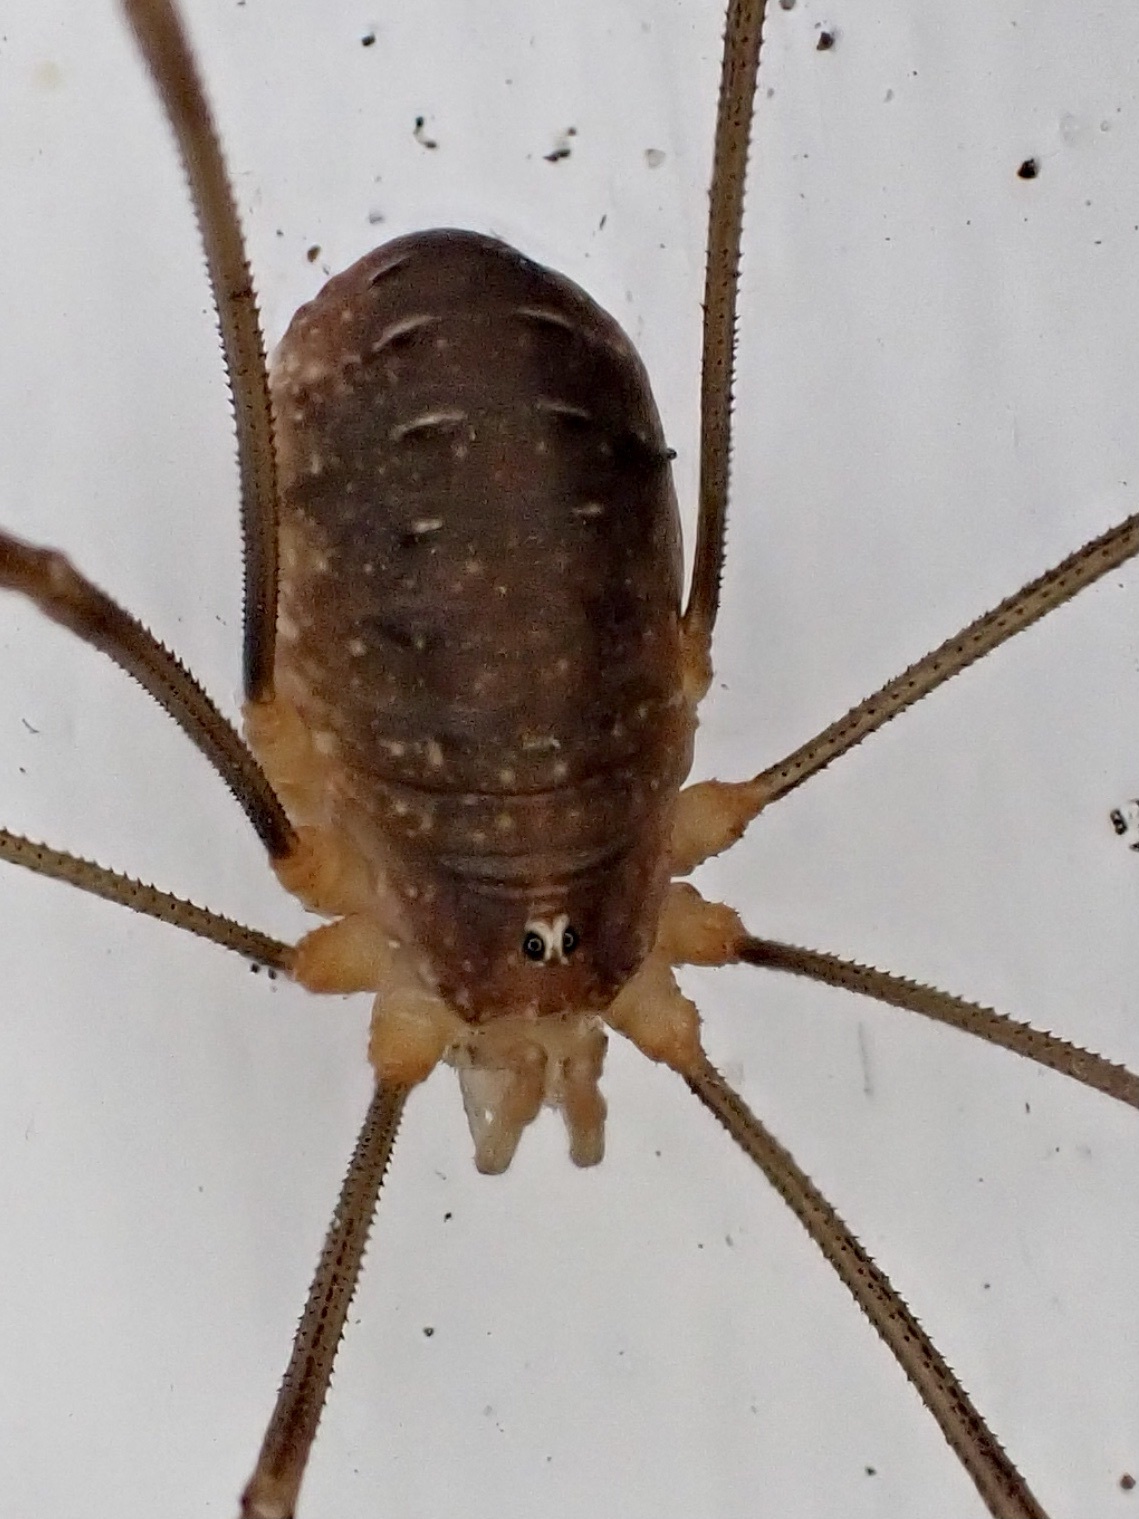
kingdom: Animalia
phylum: Arthropoda
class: Arachnida
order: Opiliones
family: Phalangiidae
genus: Opilio
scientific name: Opilio canestrinii
